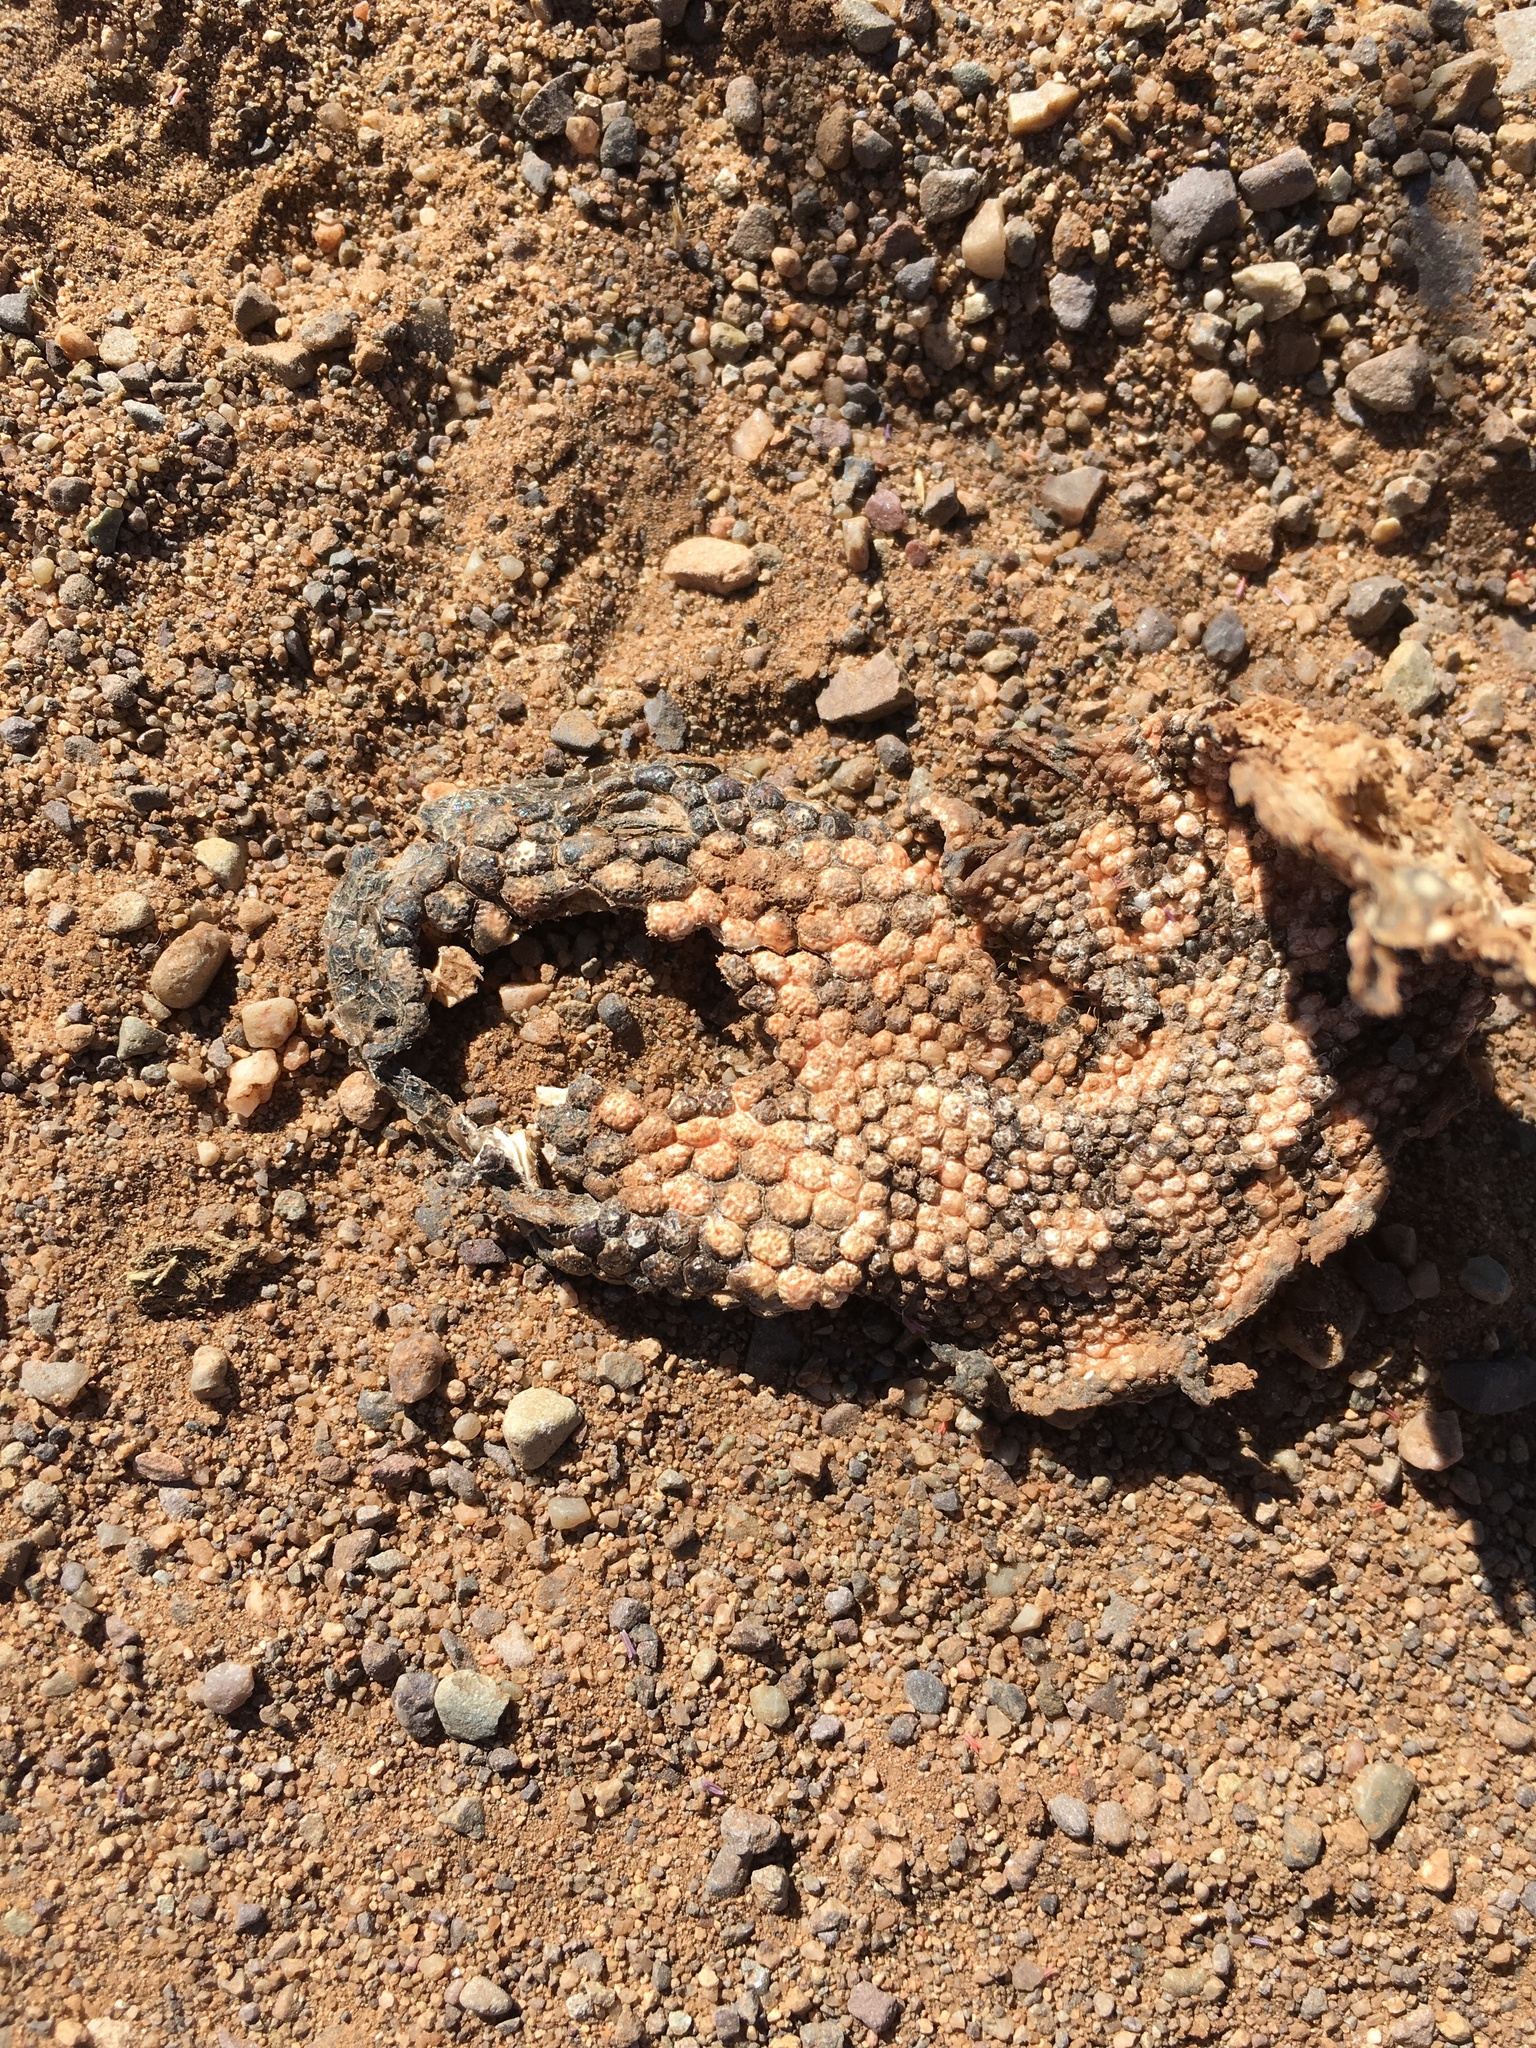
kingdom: Animalia
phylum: Chordata
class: Squamata
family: Helodermatidae
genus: Heloderma
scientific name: Heloderma suspectum
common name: Gila monster
